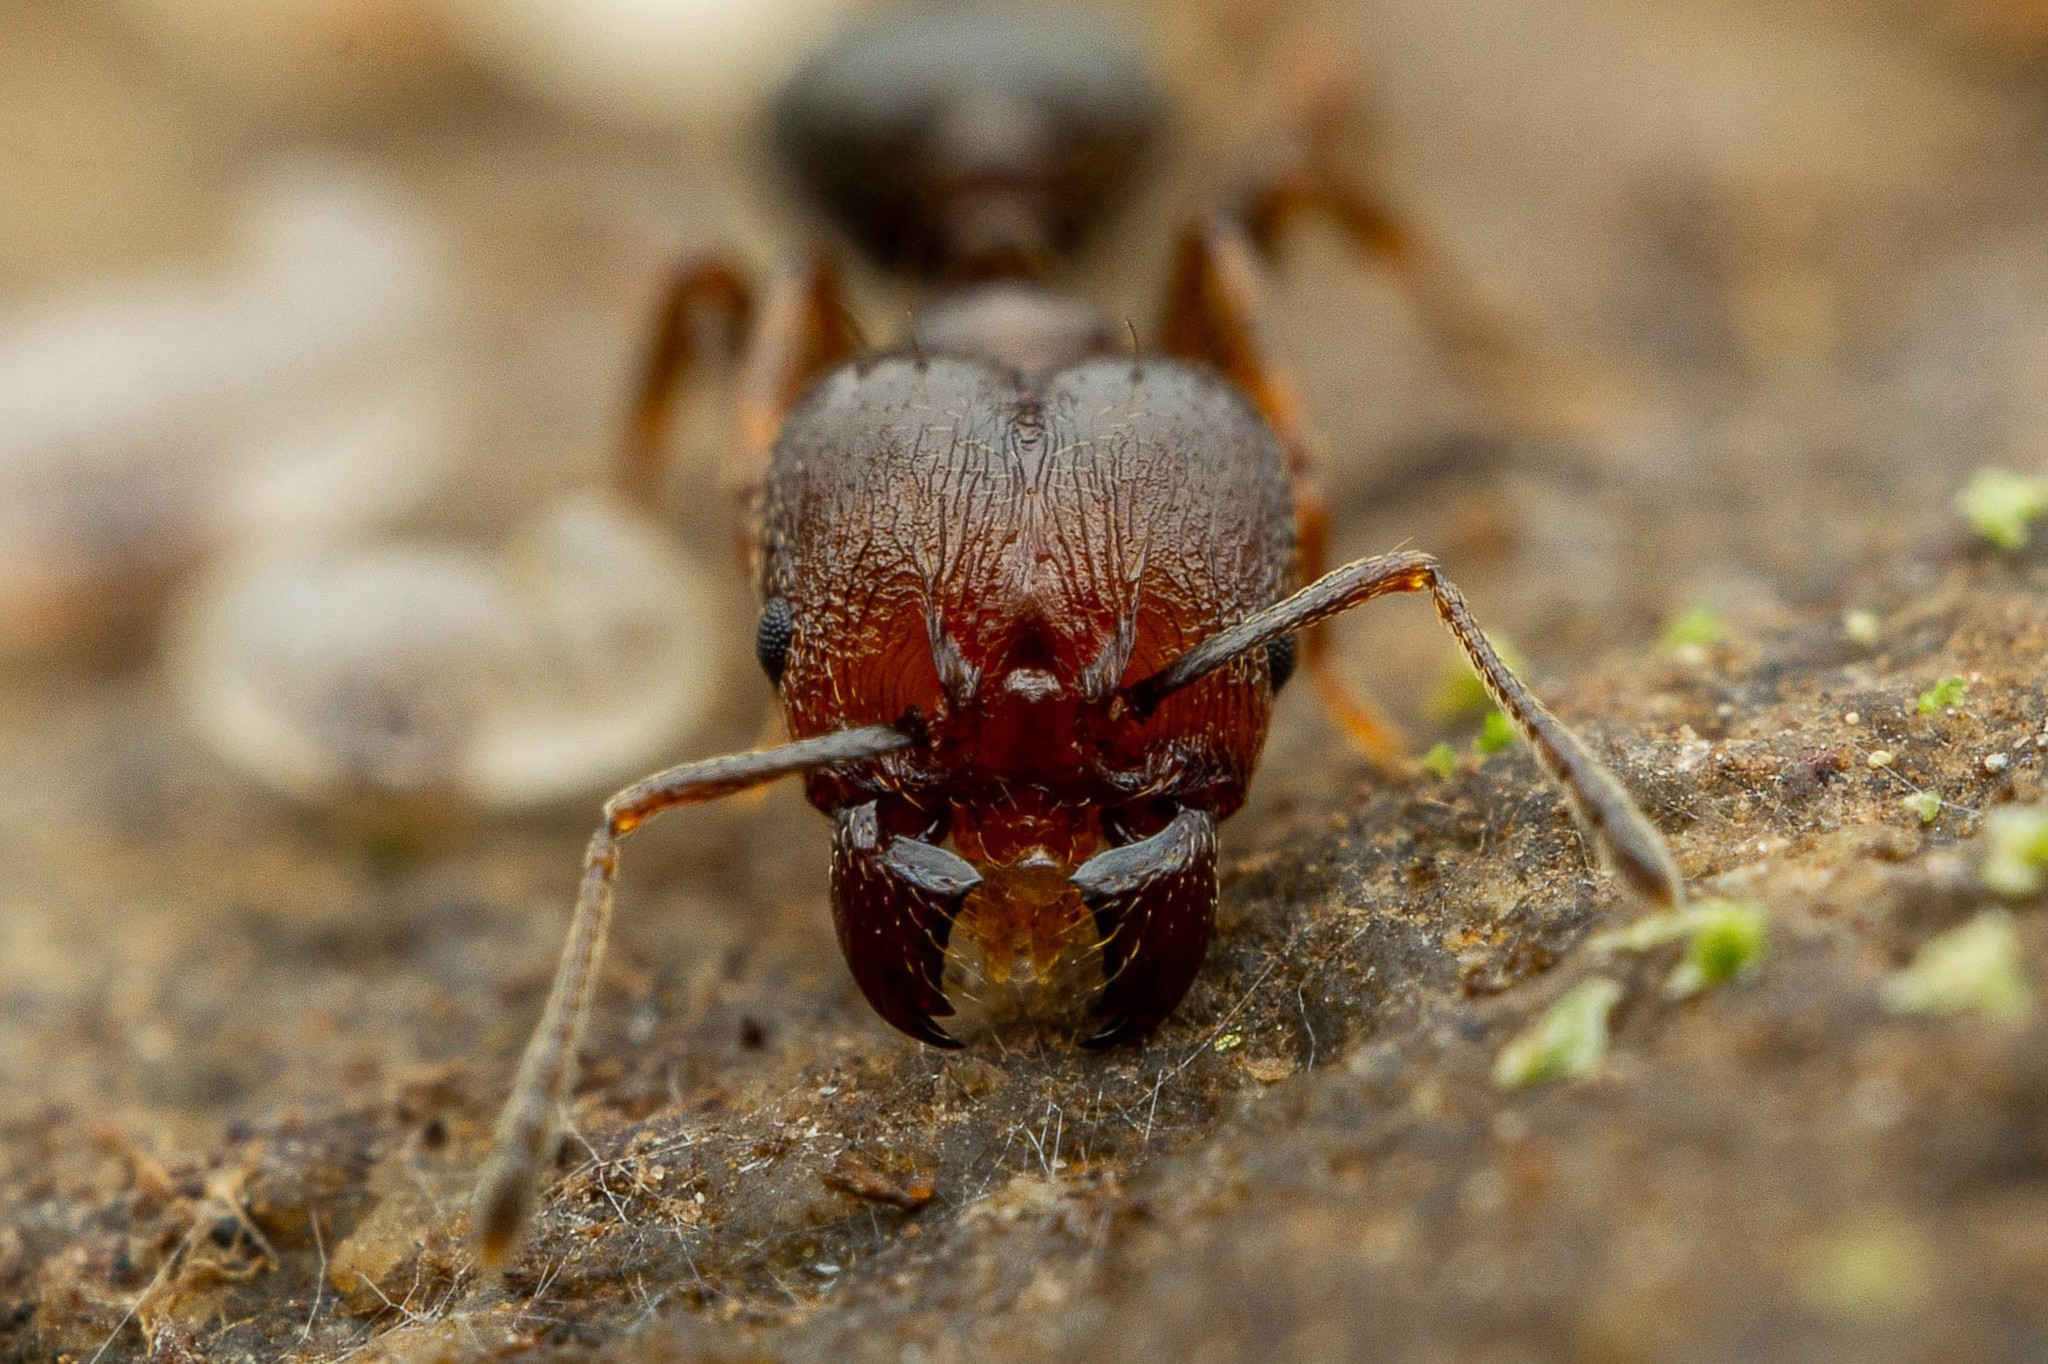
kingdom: Animalia
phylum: Arthropoda
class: Insecta
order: Hymenoptera
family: Formicidae
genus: Pheidole
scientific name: Pheidole vallicola
